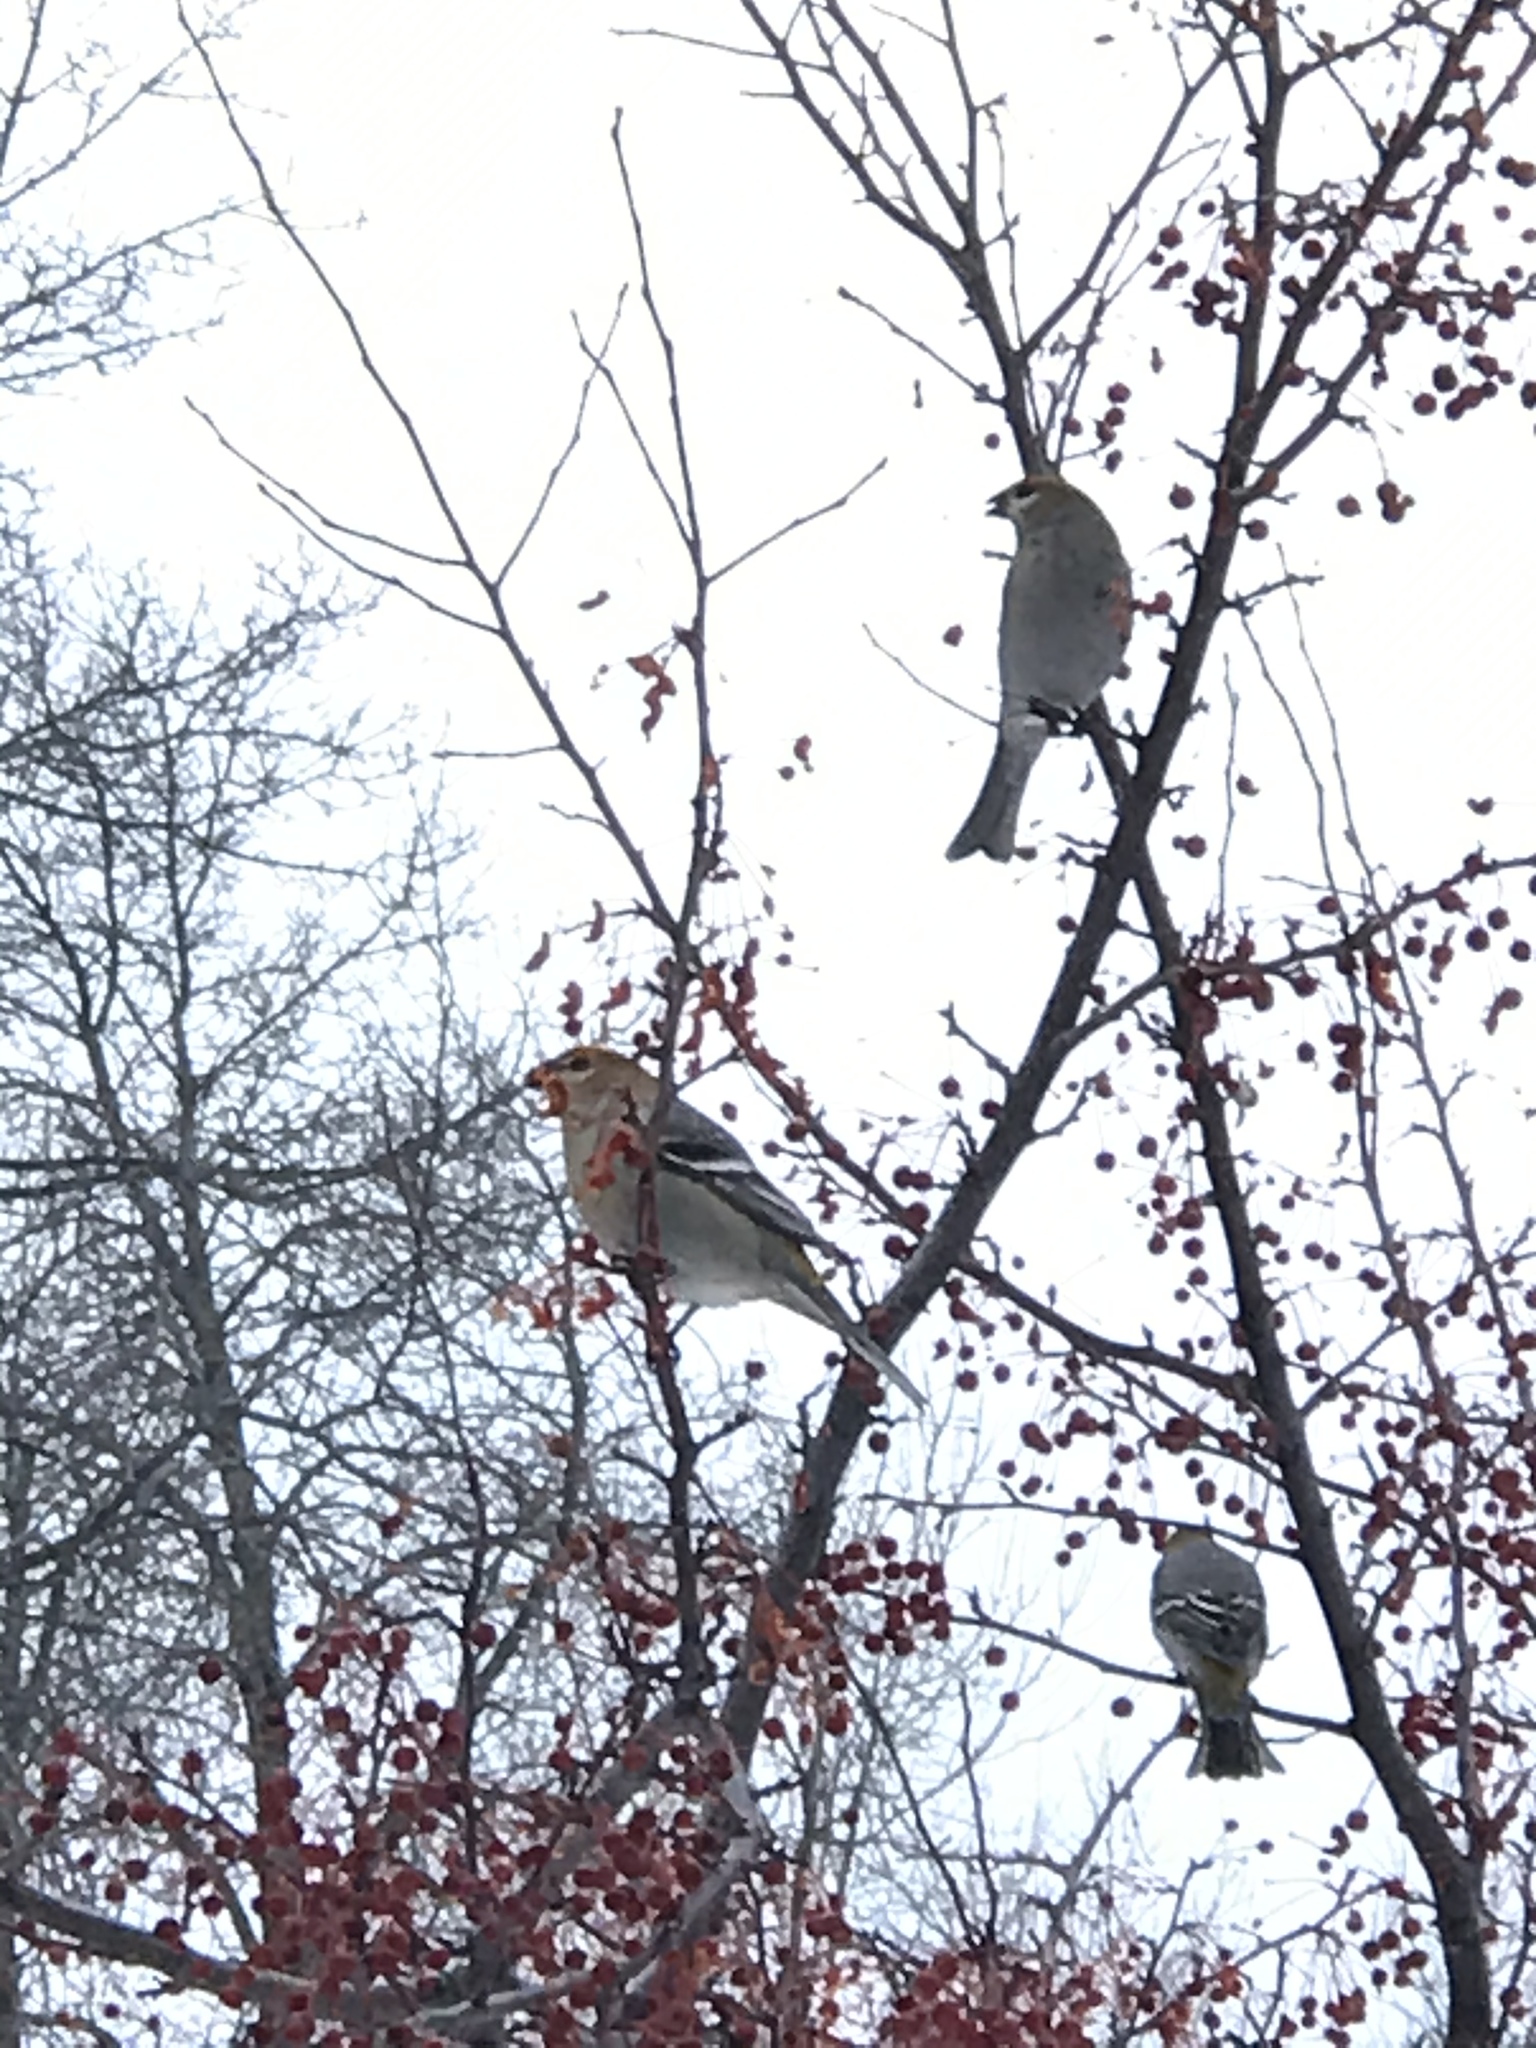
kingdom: Animalia
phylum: Chordata
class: Aves
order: Passeriformes
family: Fringillidae
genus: Pinicola
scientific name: Pinicola enucleator
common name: Pine grosbeak
